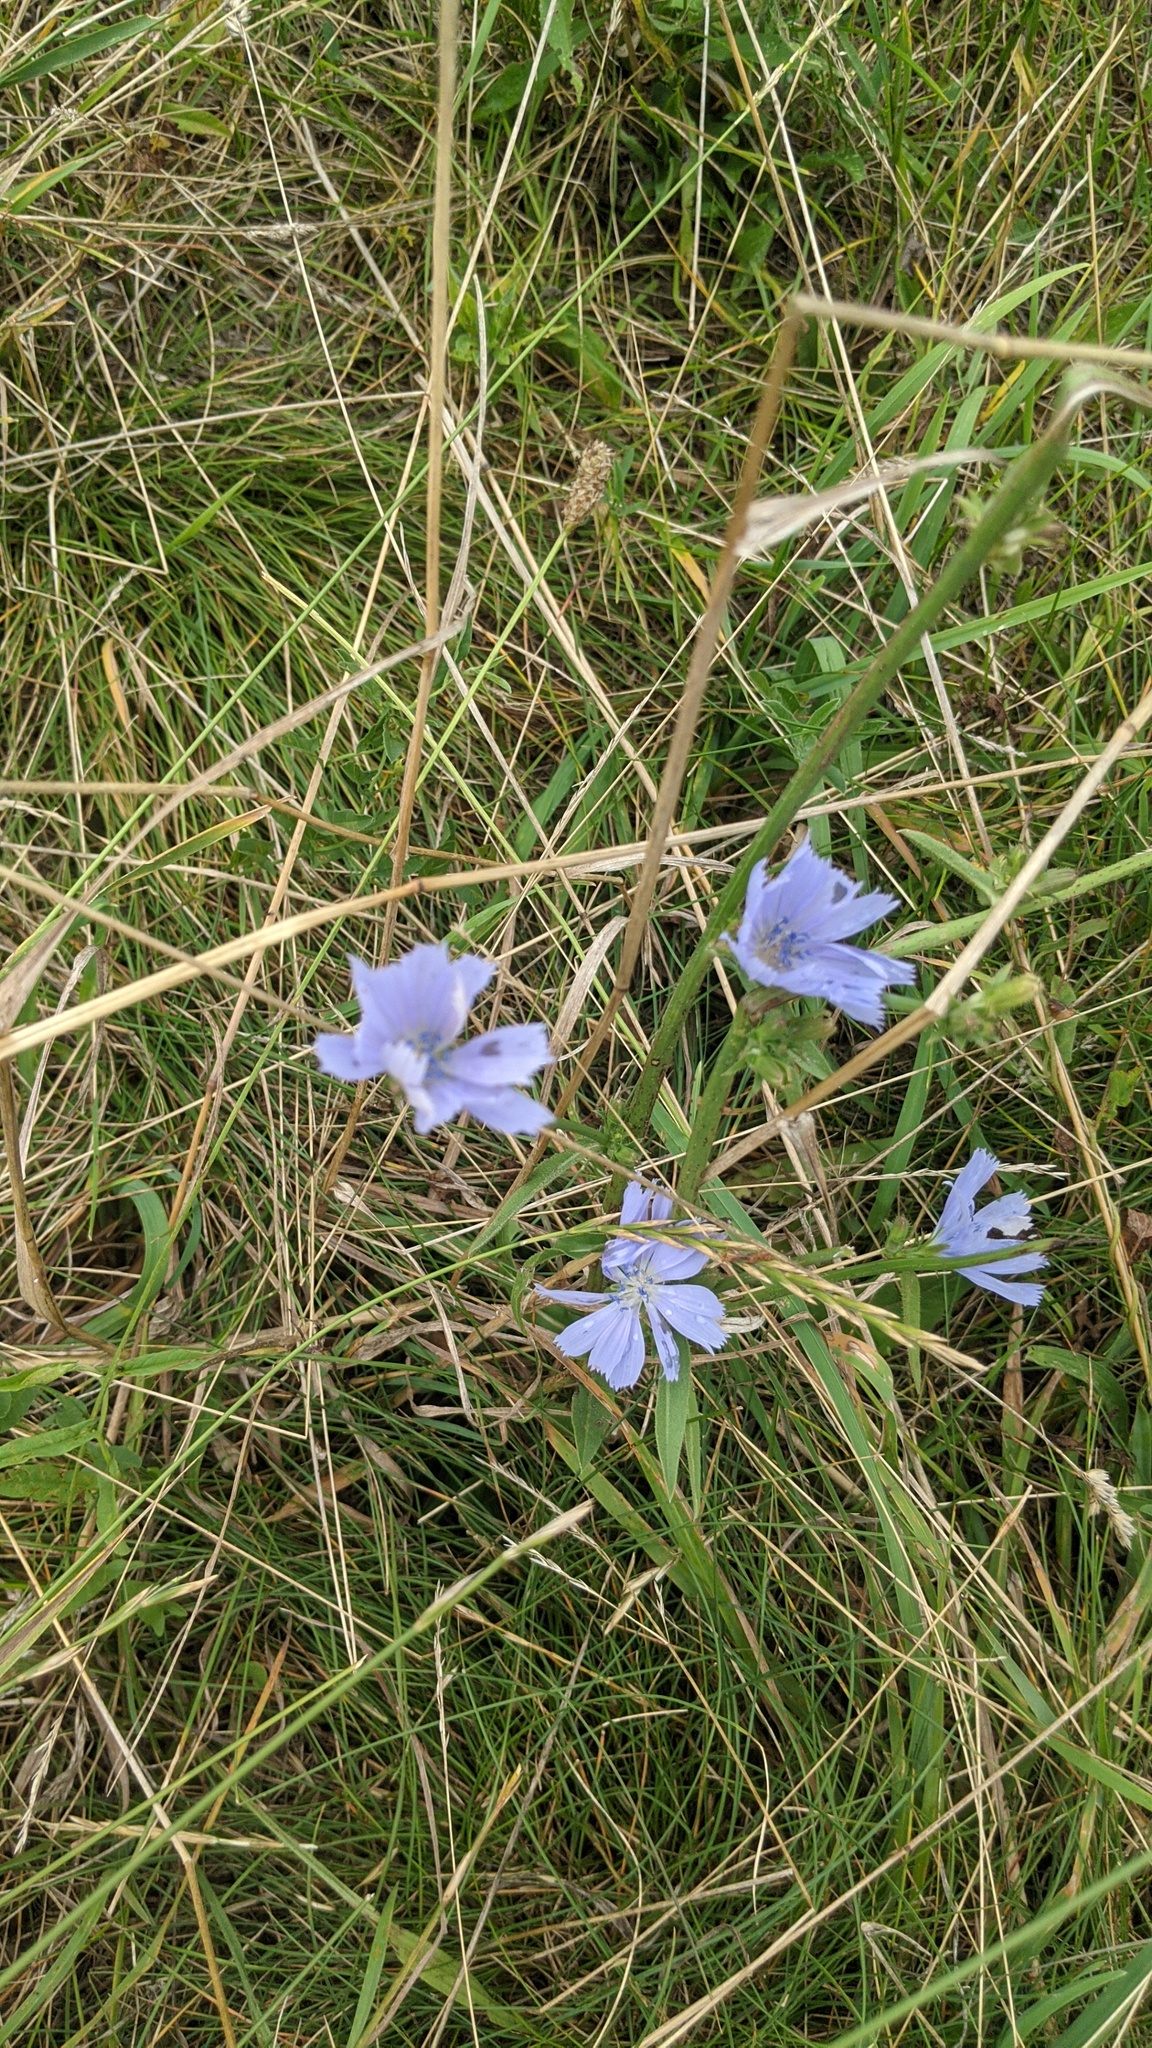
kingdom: Plantae
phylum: Tracheophyta
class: Magnoliopsida
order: Asterales
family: Asteraceae
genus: Cichorium
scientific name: Cichorium intybus
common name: Chicory
